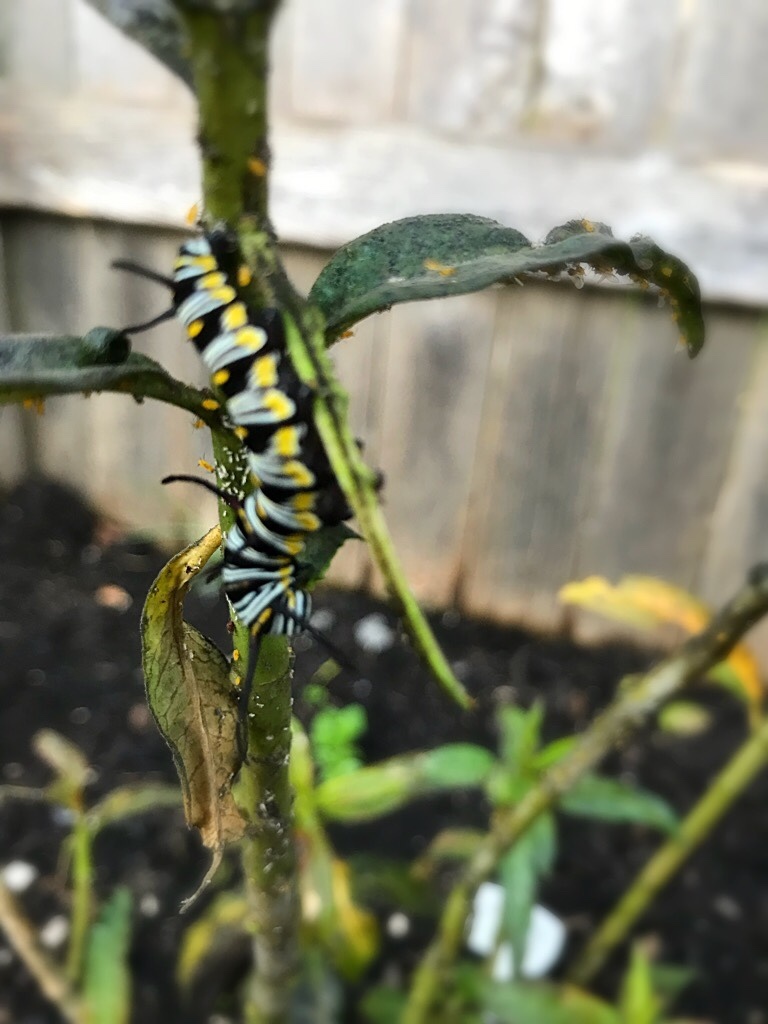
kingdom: Animalia
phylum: Arthropoda
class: Insecta
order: Lepidoptera
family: Nymphalidae
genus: Danaus
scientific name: Danaus gilippus
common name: Queen
